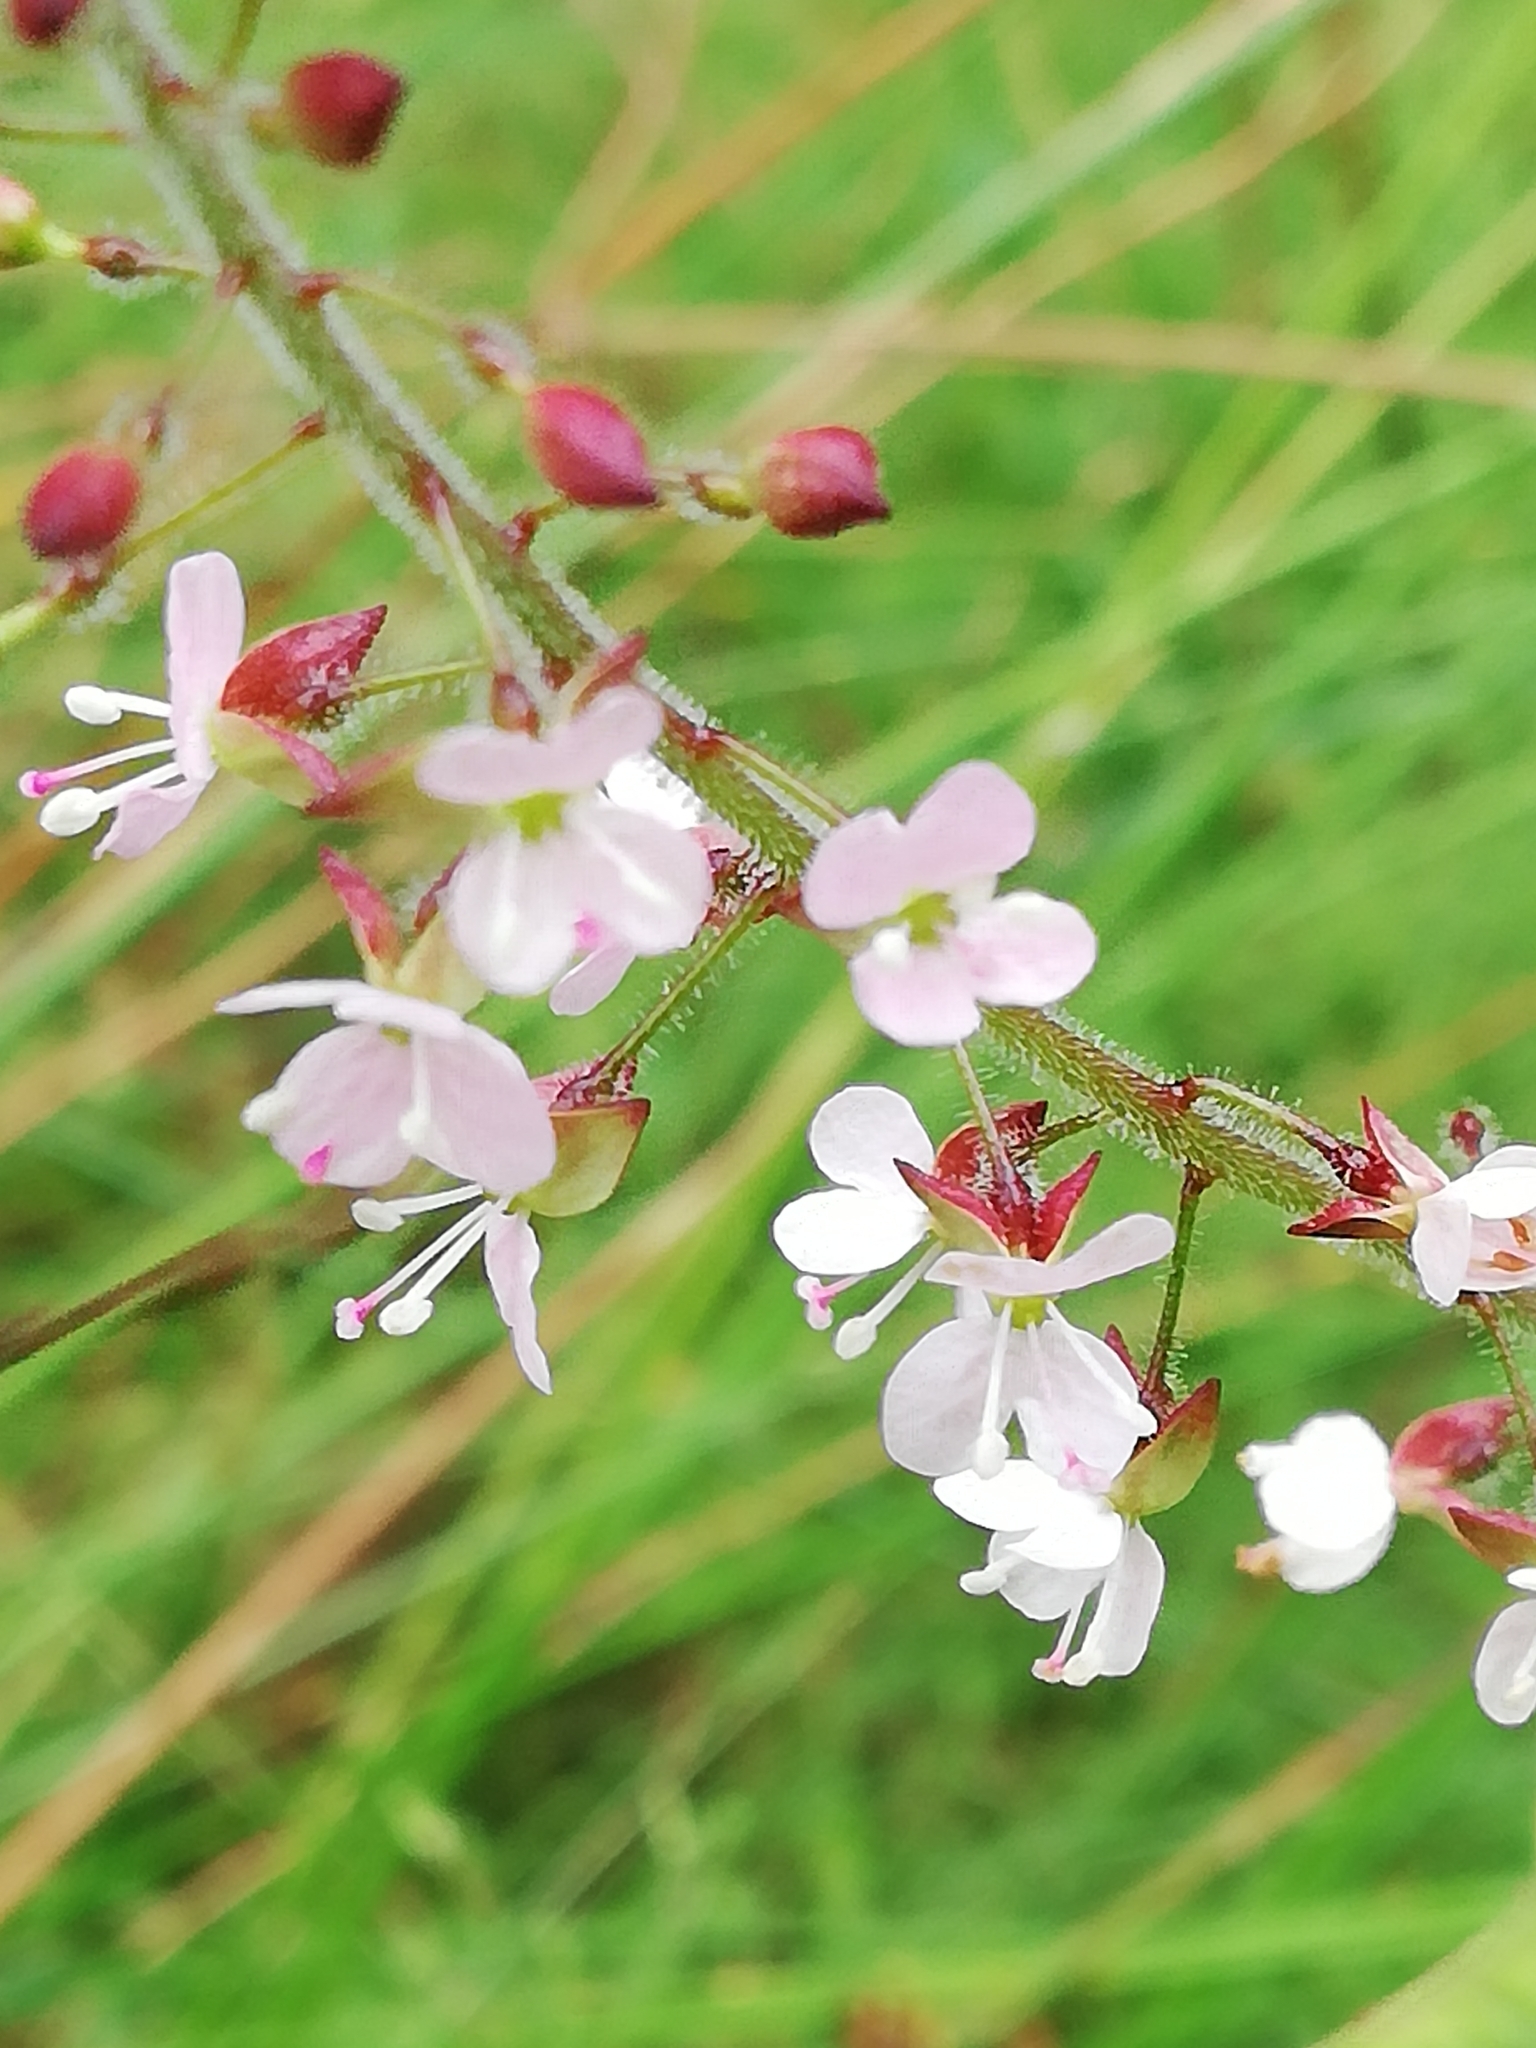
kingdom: Plantae
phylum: Tracheophyta
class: Magnoliopsida
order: Myrtales
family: Onagraceae
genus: Circaea
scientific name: Circaea lutetiana
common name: Enchanter's-nightshade
